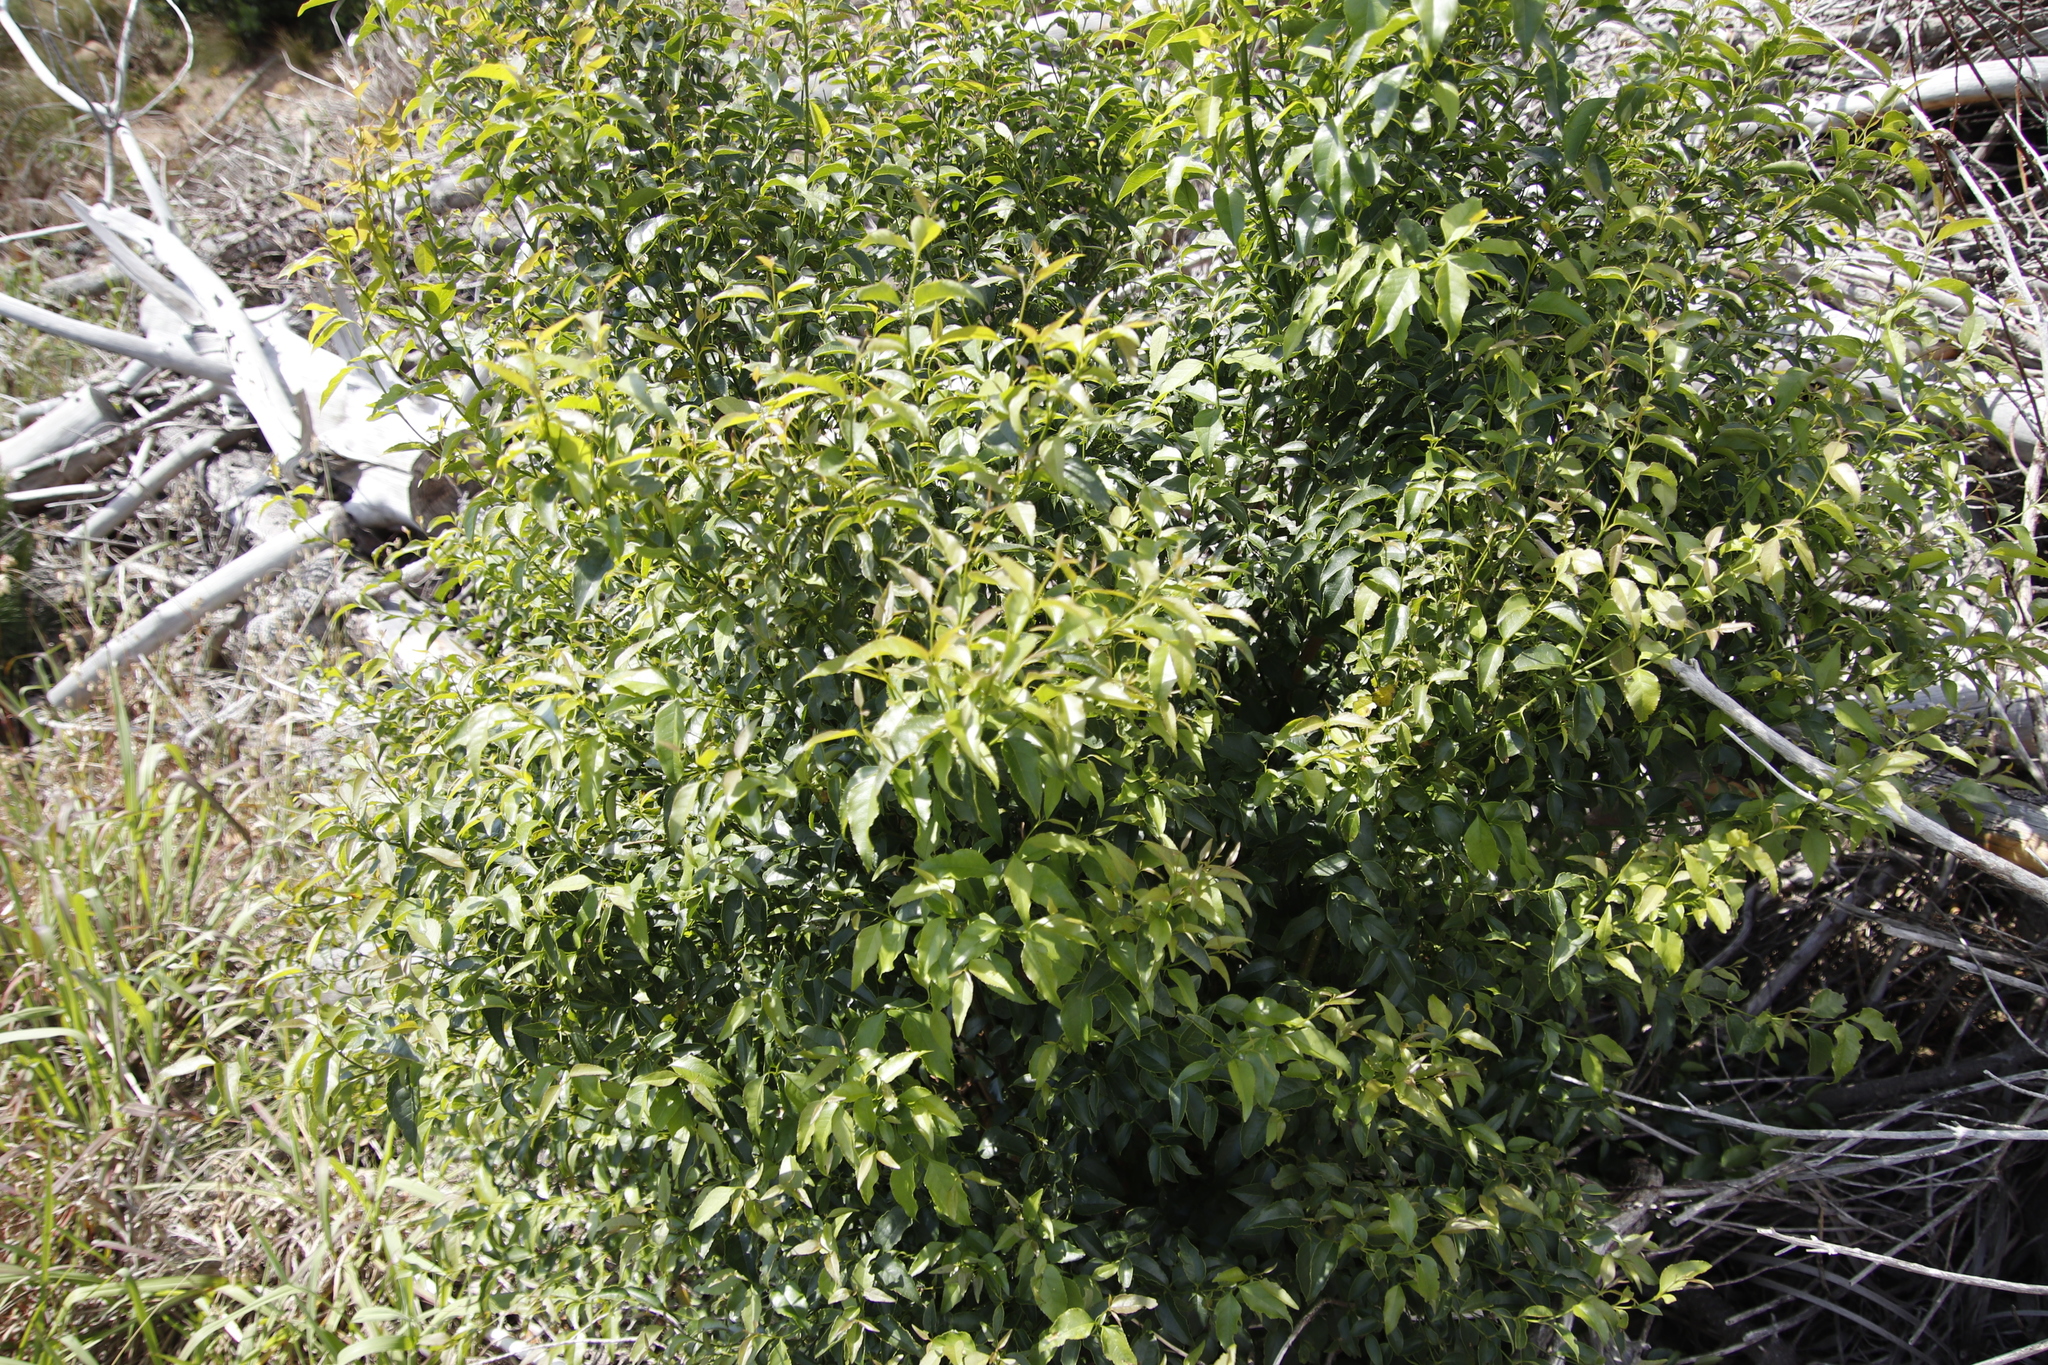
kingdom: Plantae
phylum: Tracheophyta
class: Magnoliopsida
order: Lamiales
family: Stilbaceae
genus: Halleria
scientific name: Halleria lucida
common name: Tree fuschia
